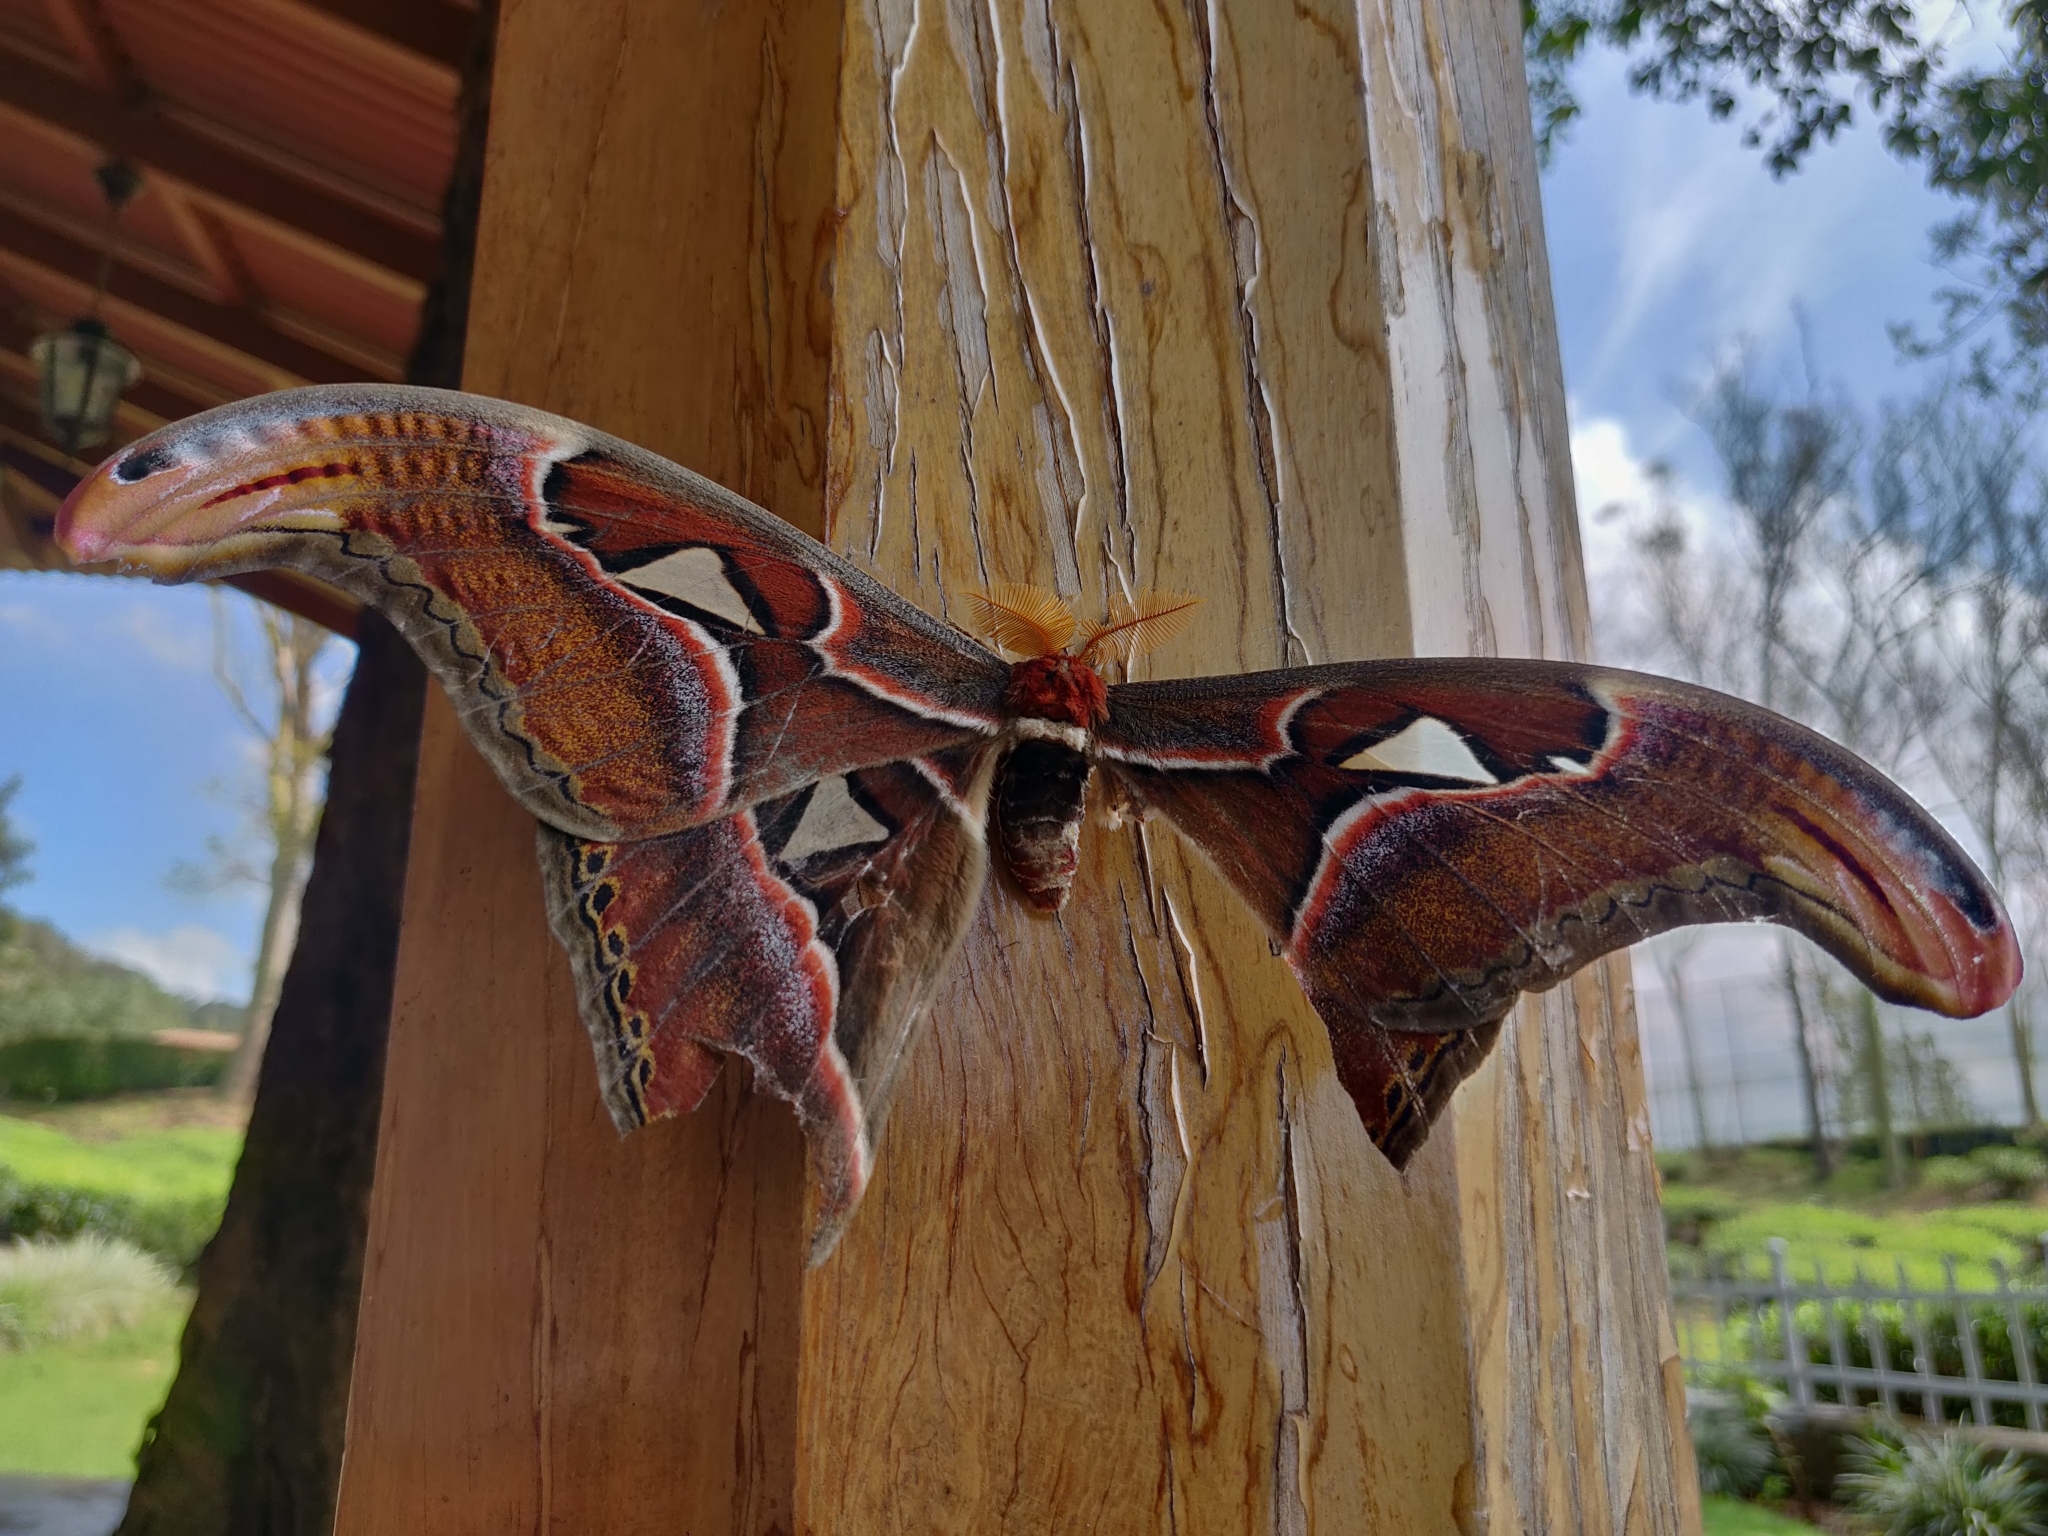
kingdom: Animalia
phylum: Arthropoda
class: Insecta
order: Lepidoptera
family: Saturniidae
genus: Attacus
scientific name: Attacus taprobanis
